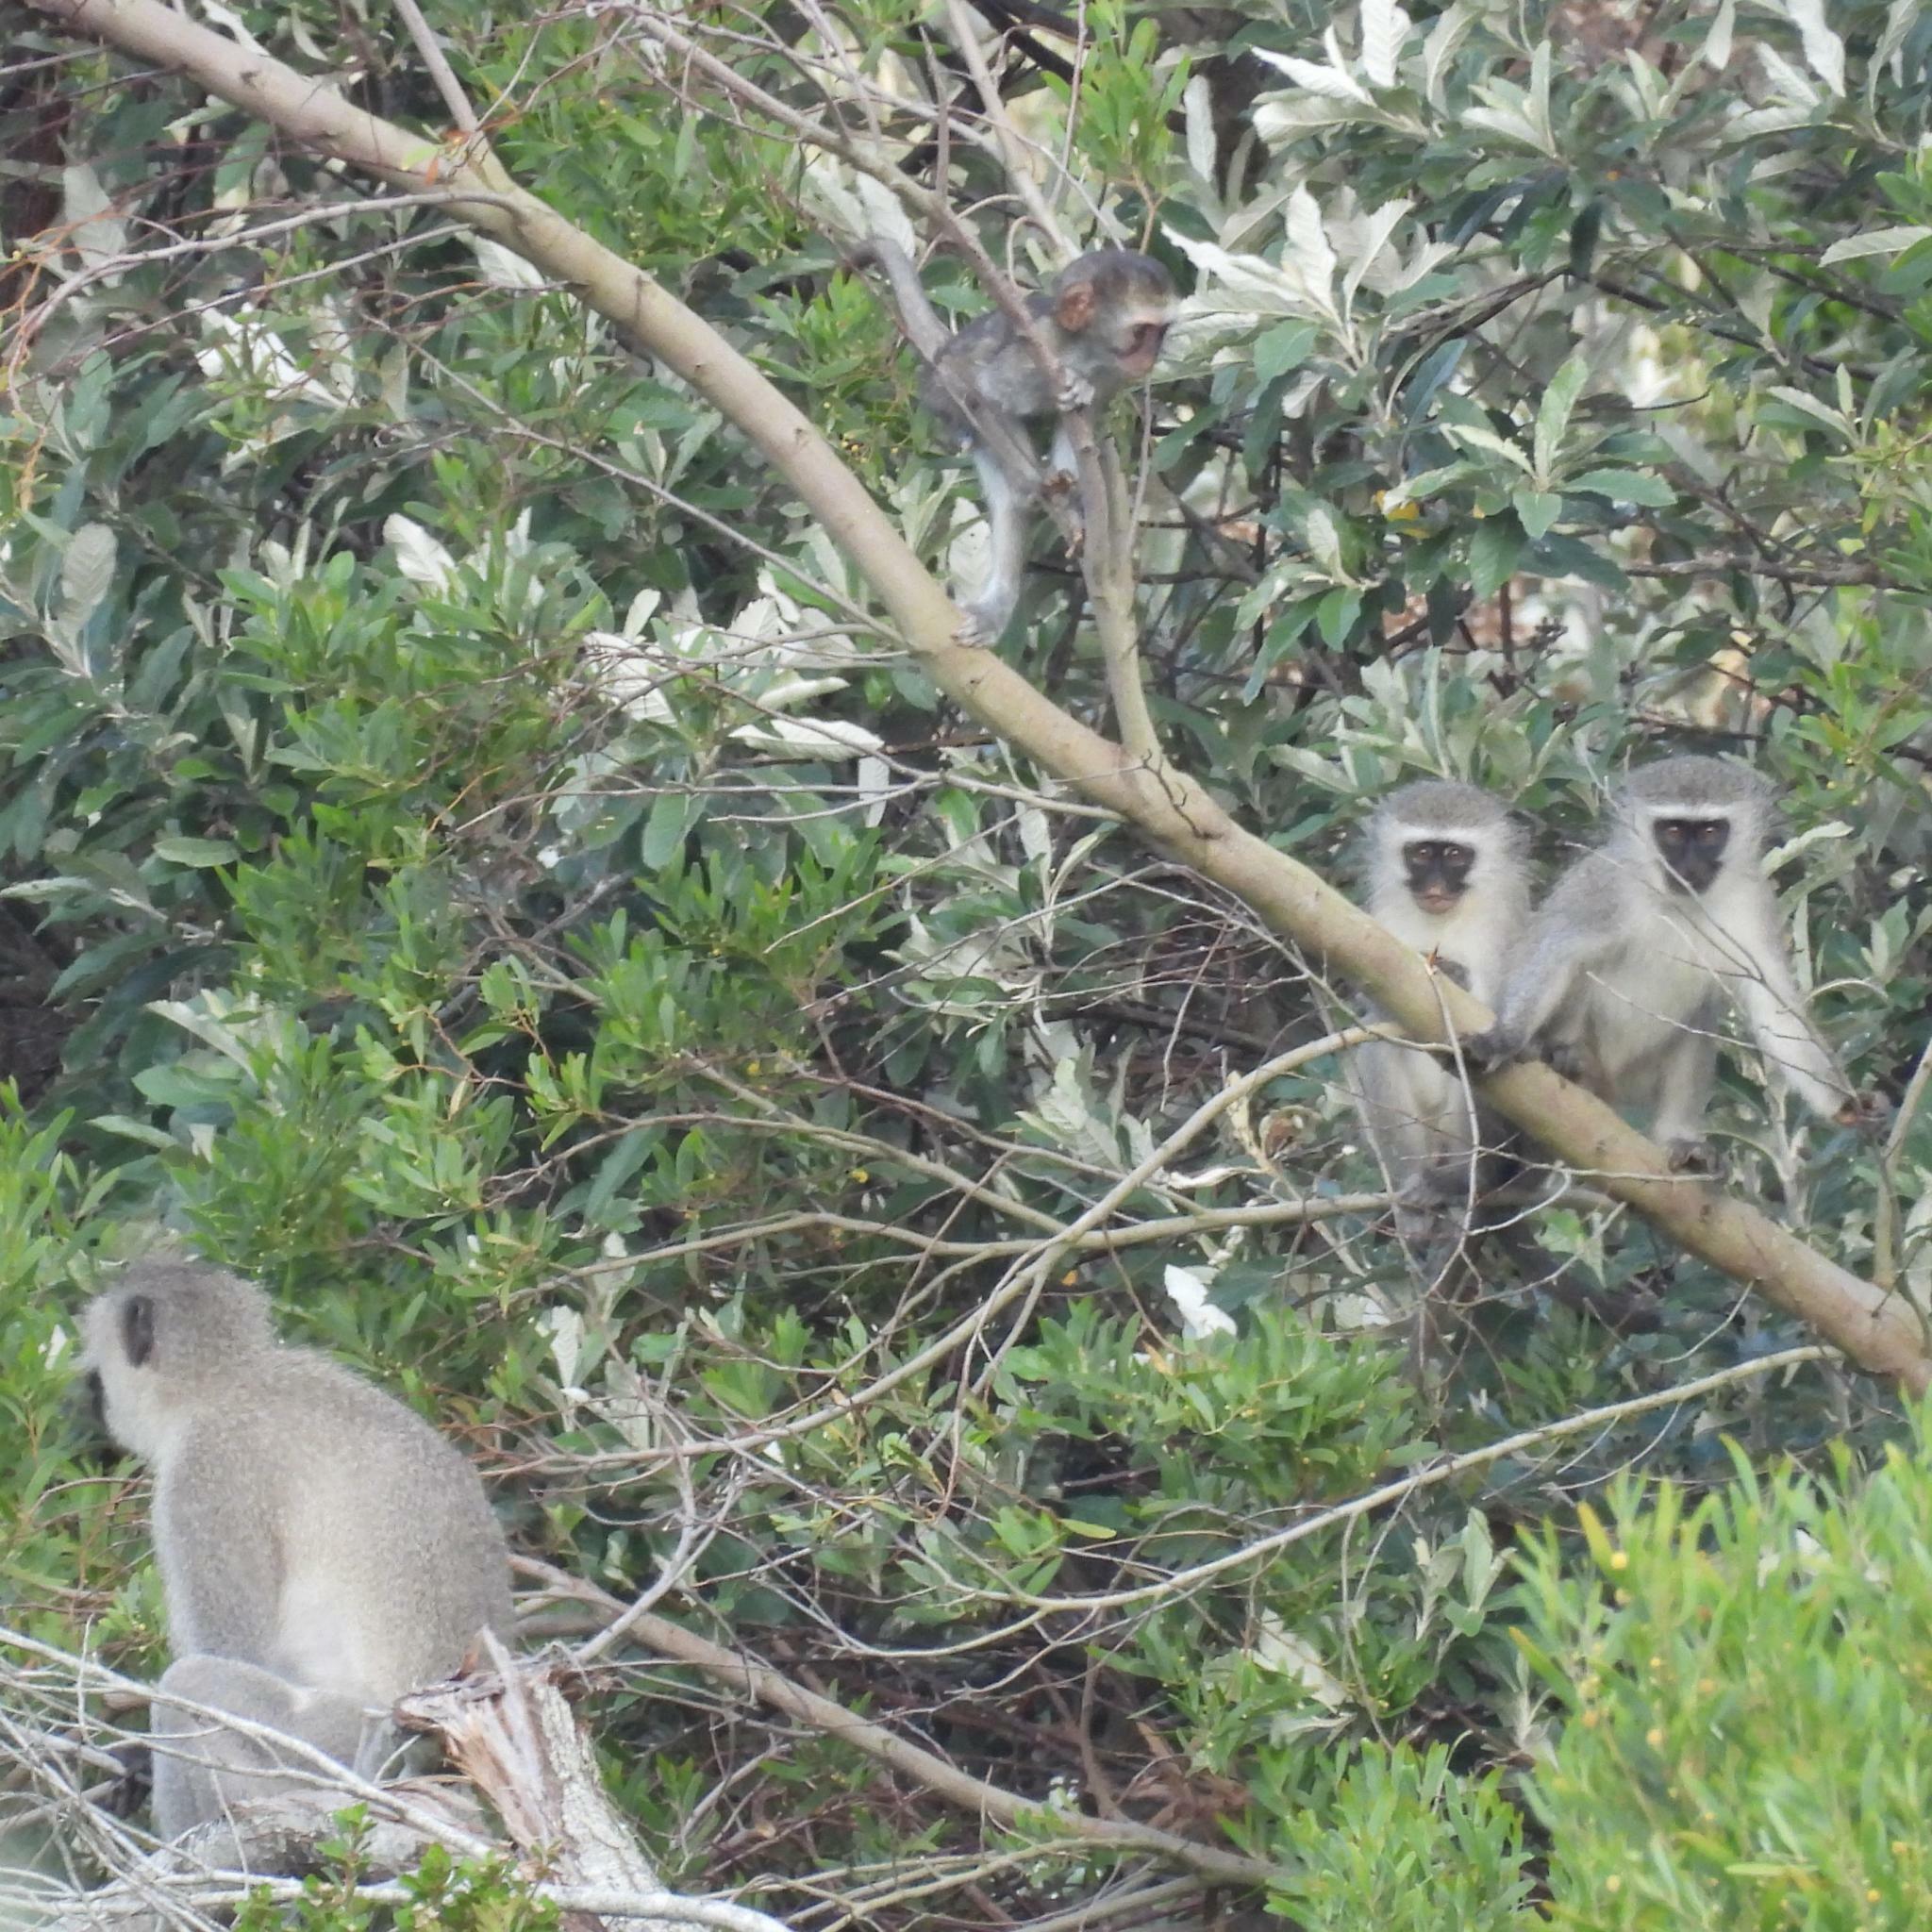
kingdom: Animalia
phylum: Chordata
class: Mammalia
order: Primates
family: Cercopithecidae
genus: Chlorocebus
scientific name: Chlorocebus pygerythrus
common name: Vervet monkey
